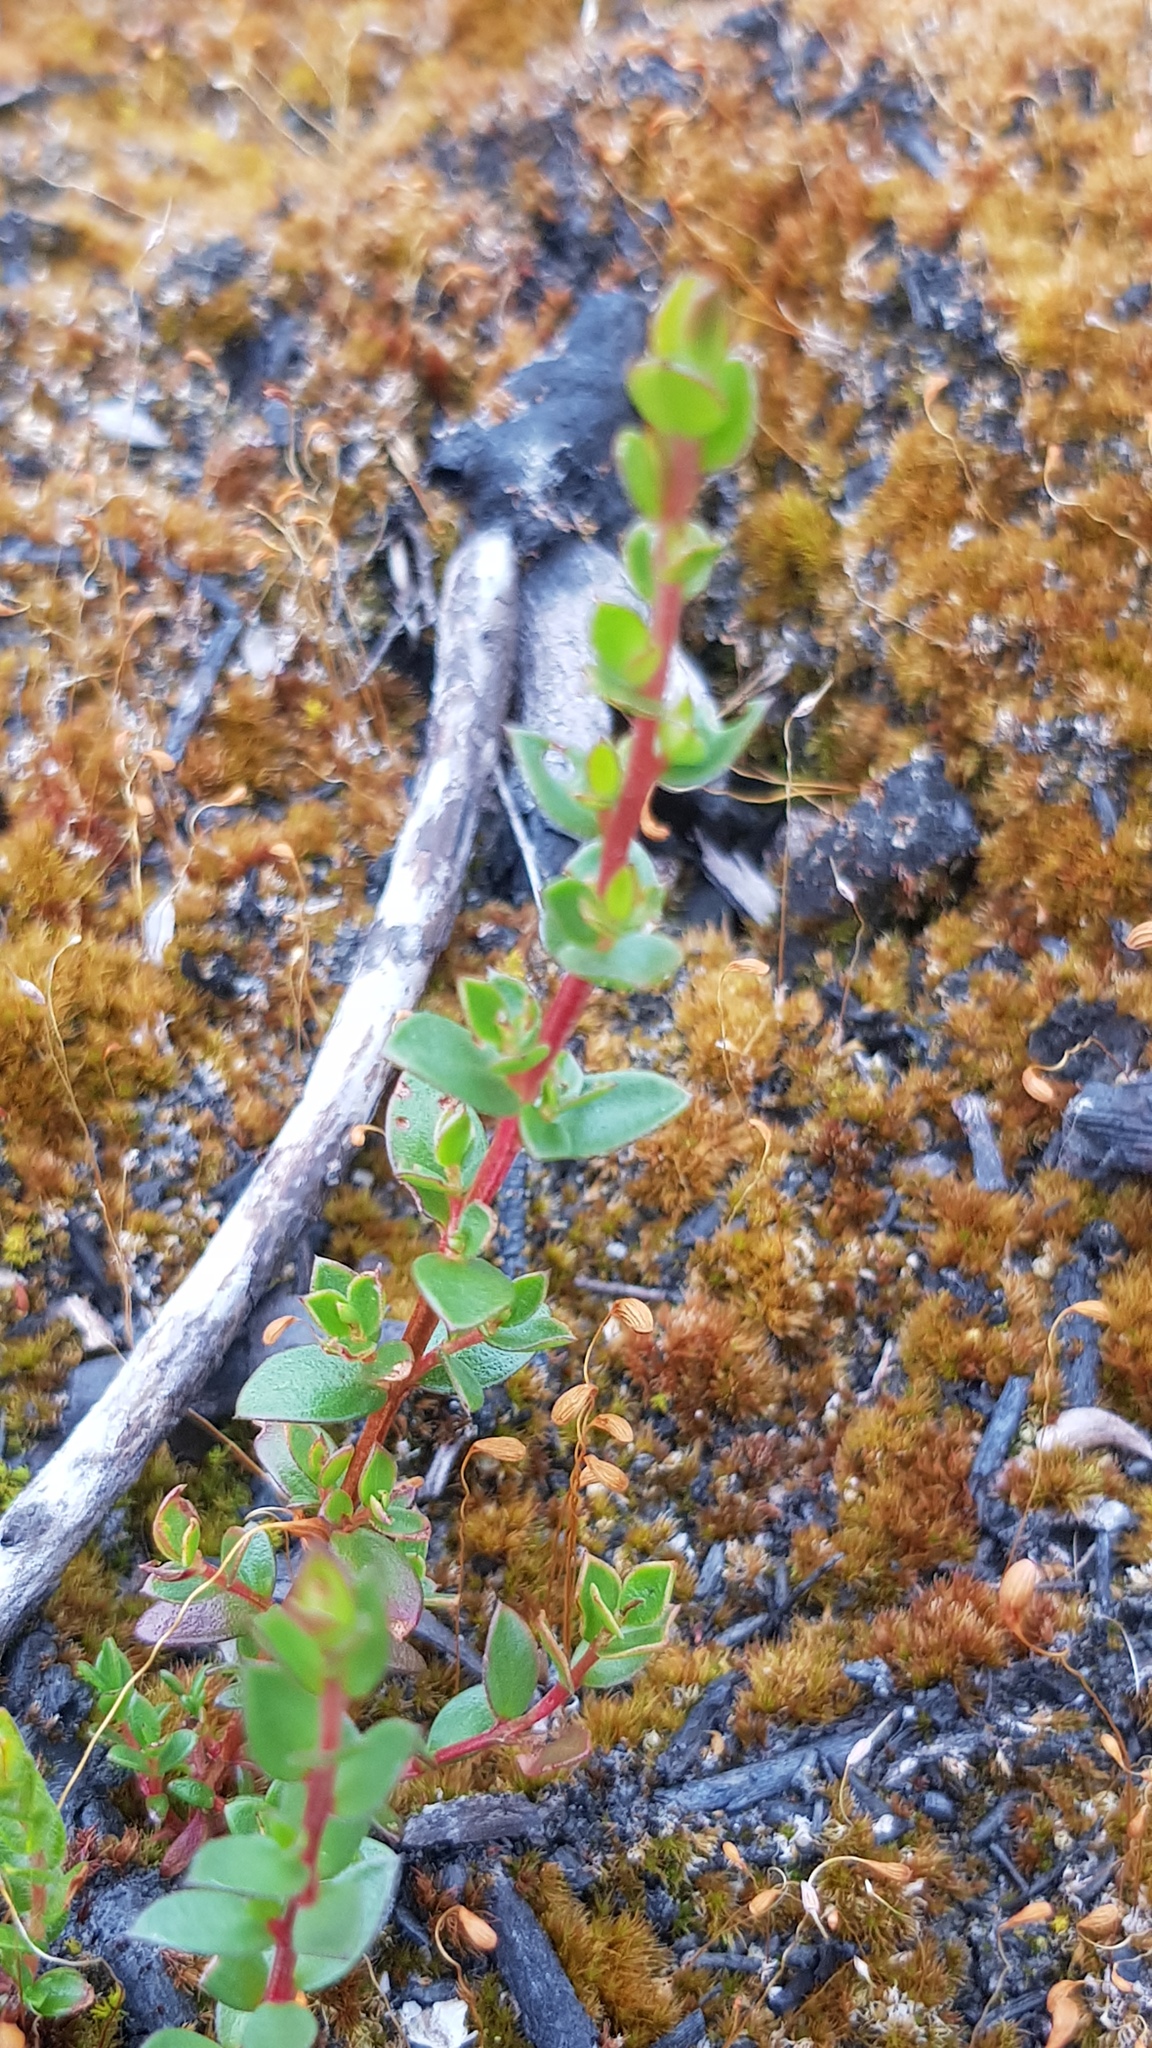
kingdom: Plantae
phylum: Tracheophyta
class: Magnoliopsida
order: Myrtales
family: Myrtaceae
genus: Leptospermum
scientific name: Leptospermum scoparium
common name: Broom tea-tree
